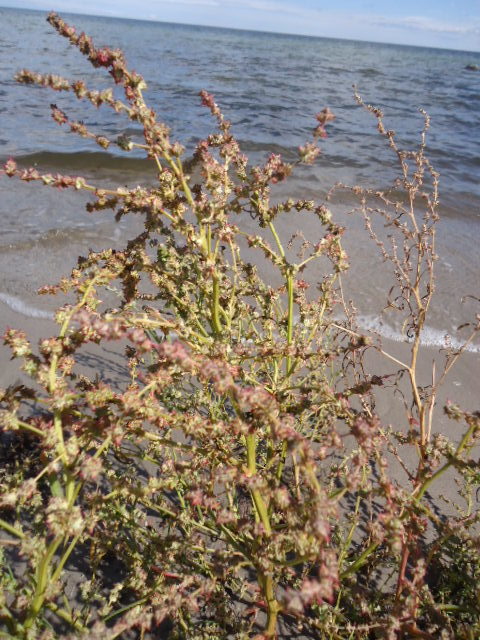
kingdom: Plantae
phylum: Tracheophyta
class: Magnoliopsida
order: Caryophyllales
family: Amaranthaceae
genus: Atriplex
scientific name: Atriplex littoralis
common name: Grass-leaved orache
